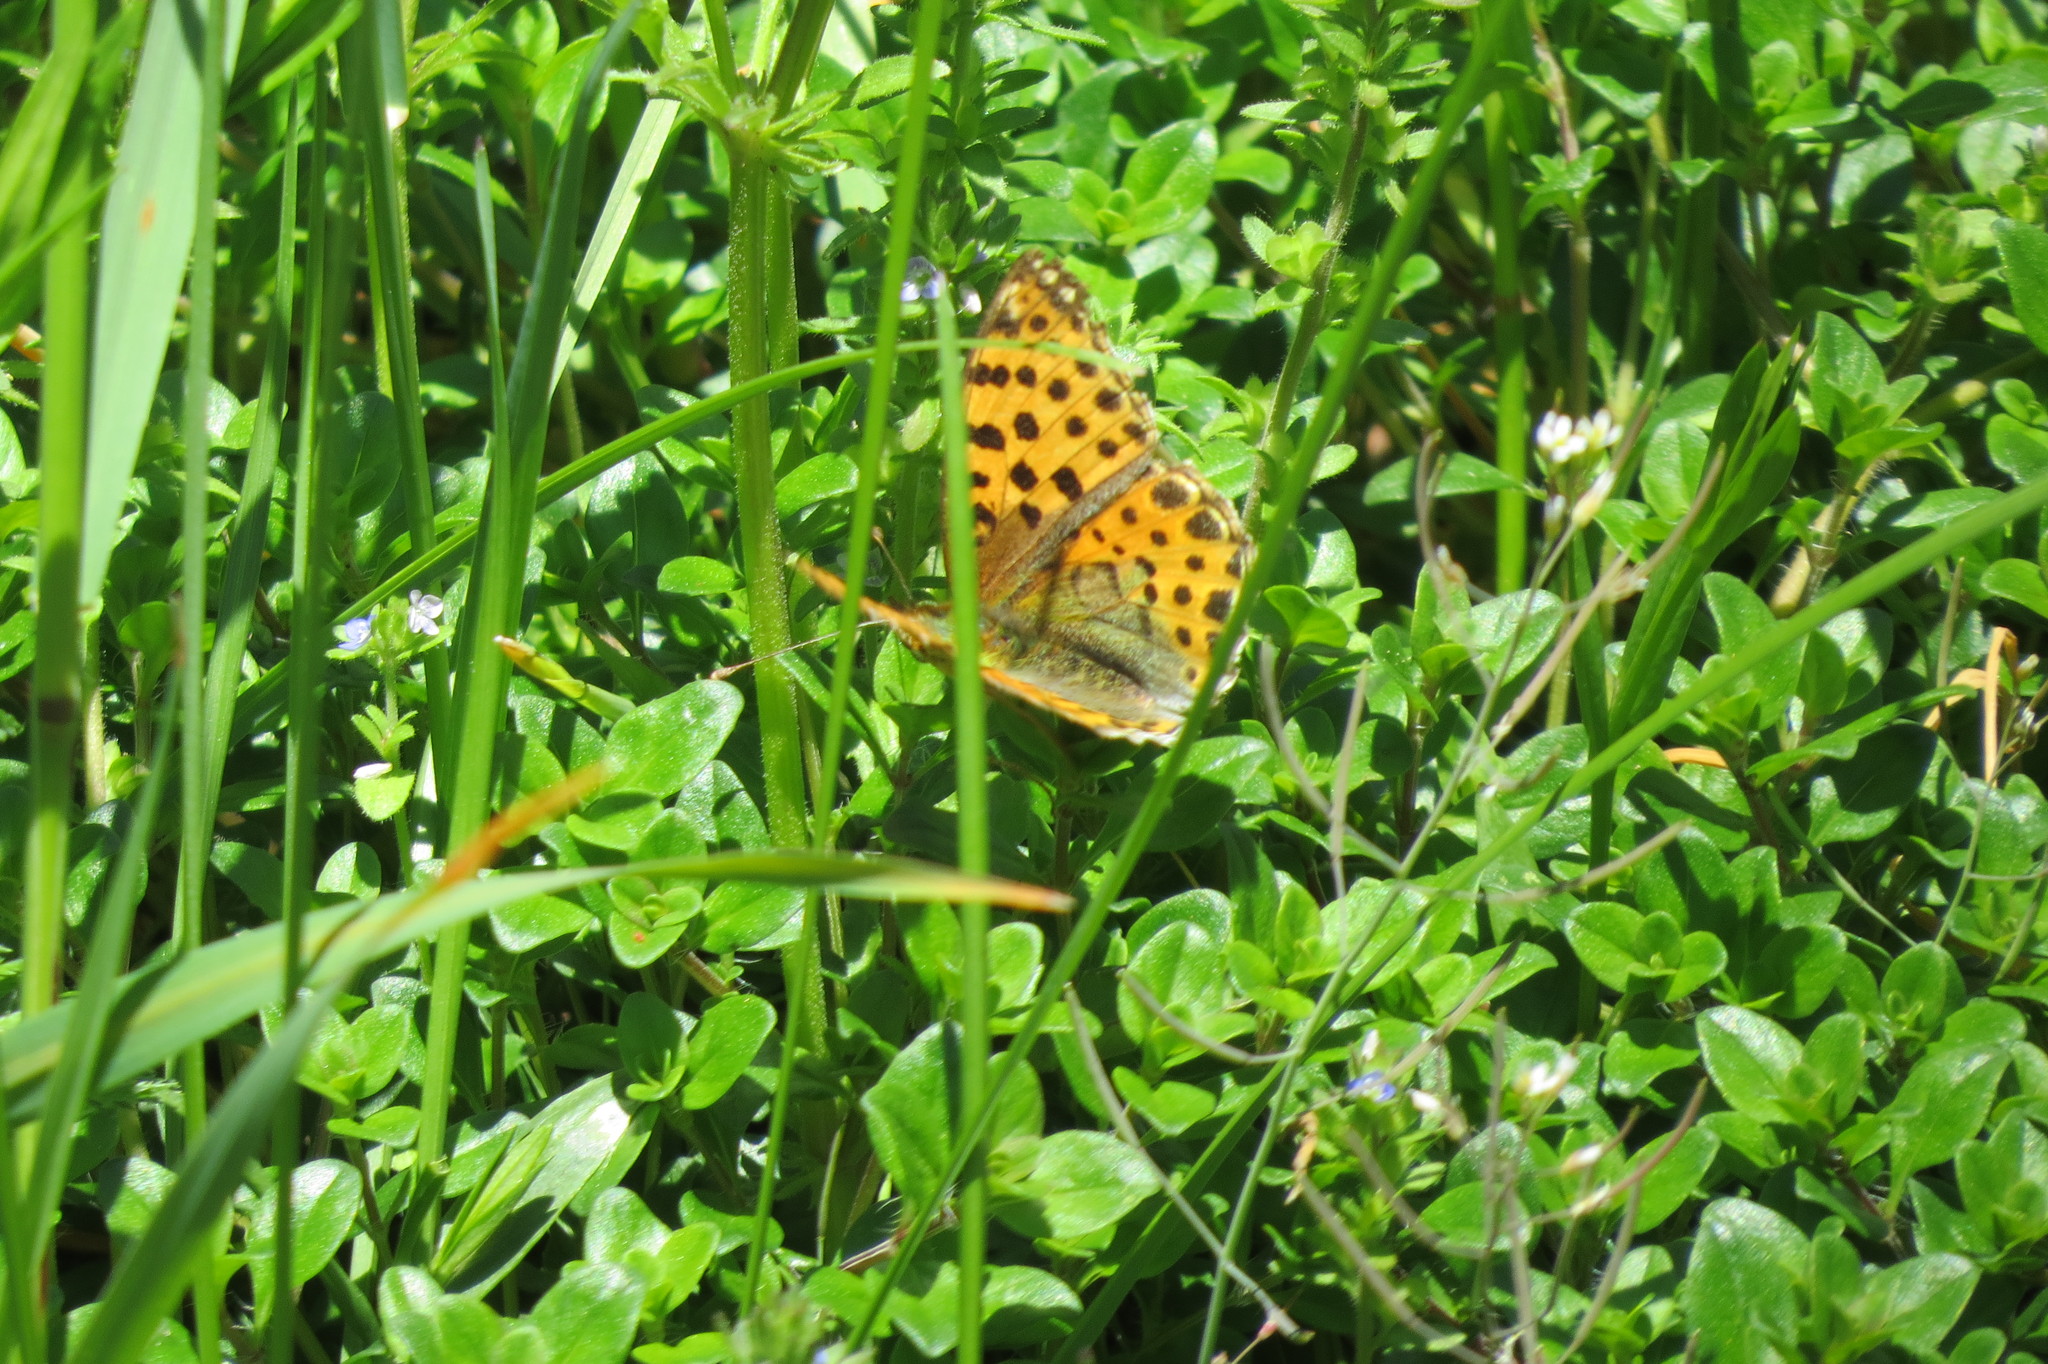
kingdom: Animalia
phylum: Arthropoda
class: Insecta
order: Lepidoptera
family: Nymphalidae
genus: Issoria
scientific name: Issoria lathonia
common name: Queen of spain fritillary
